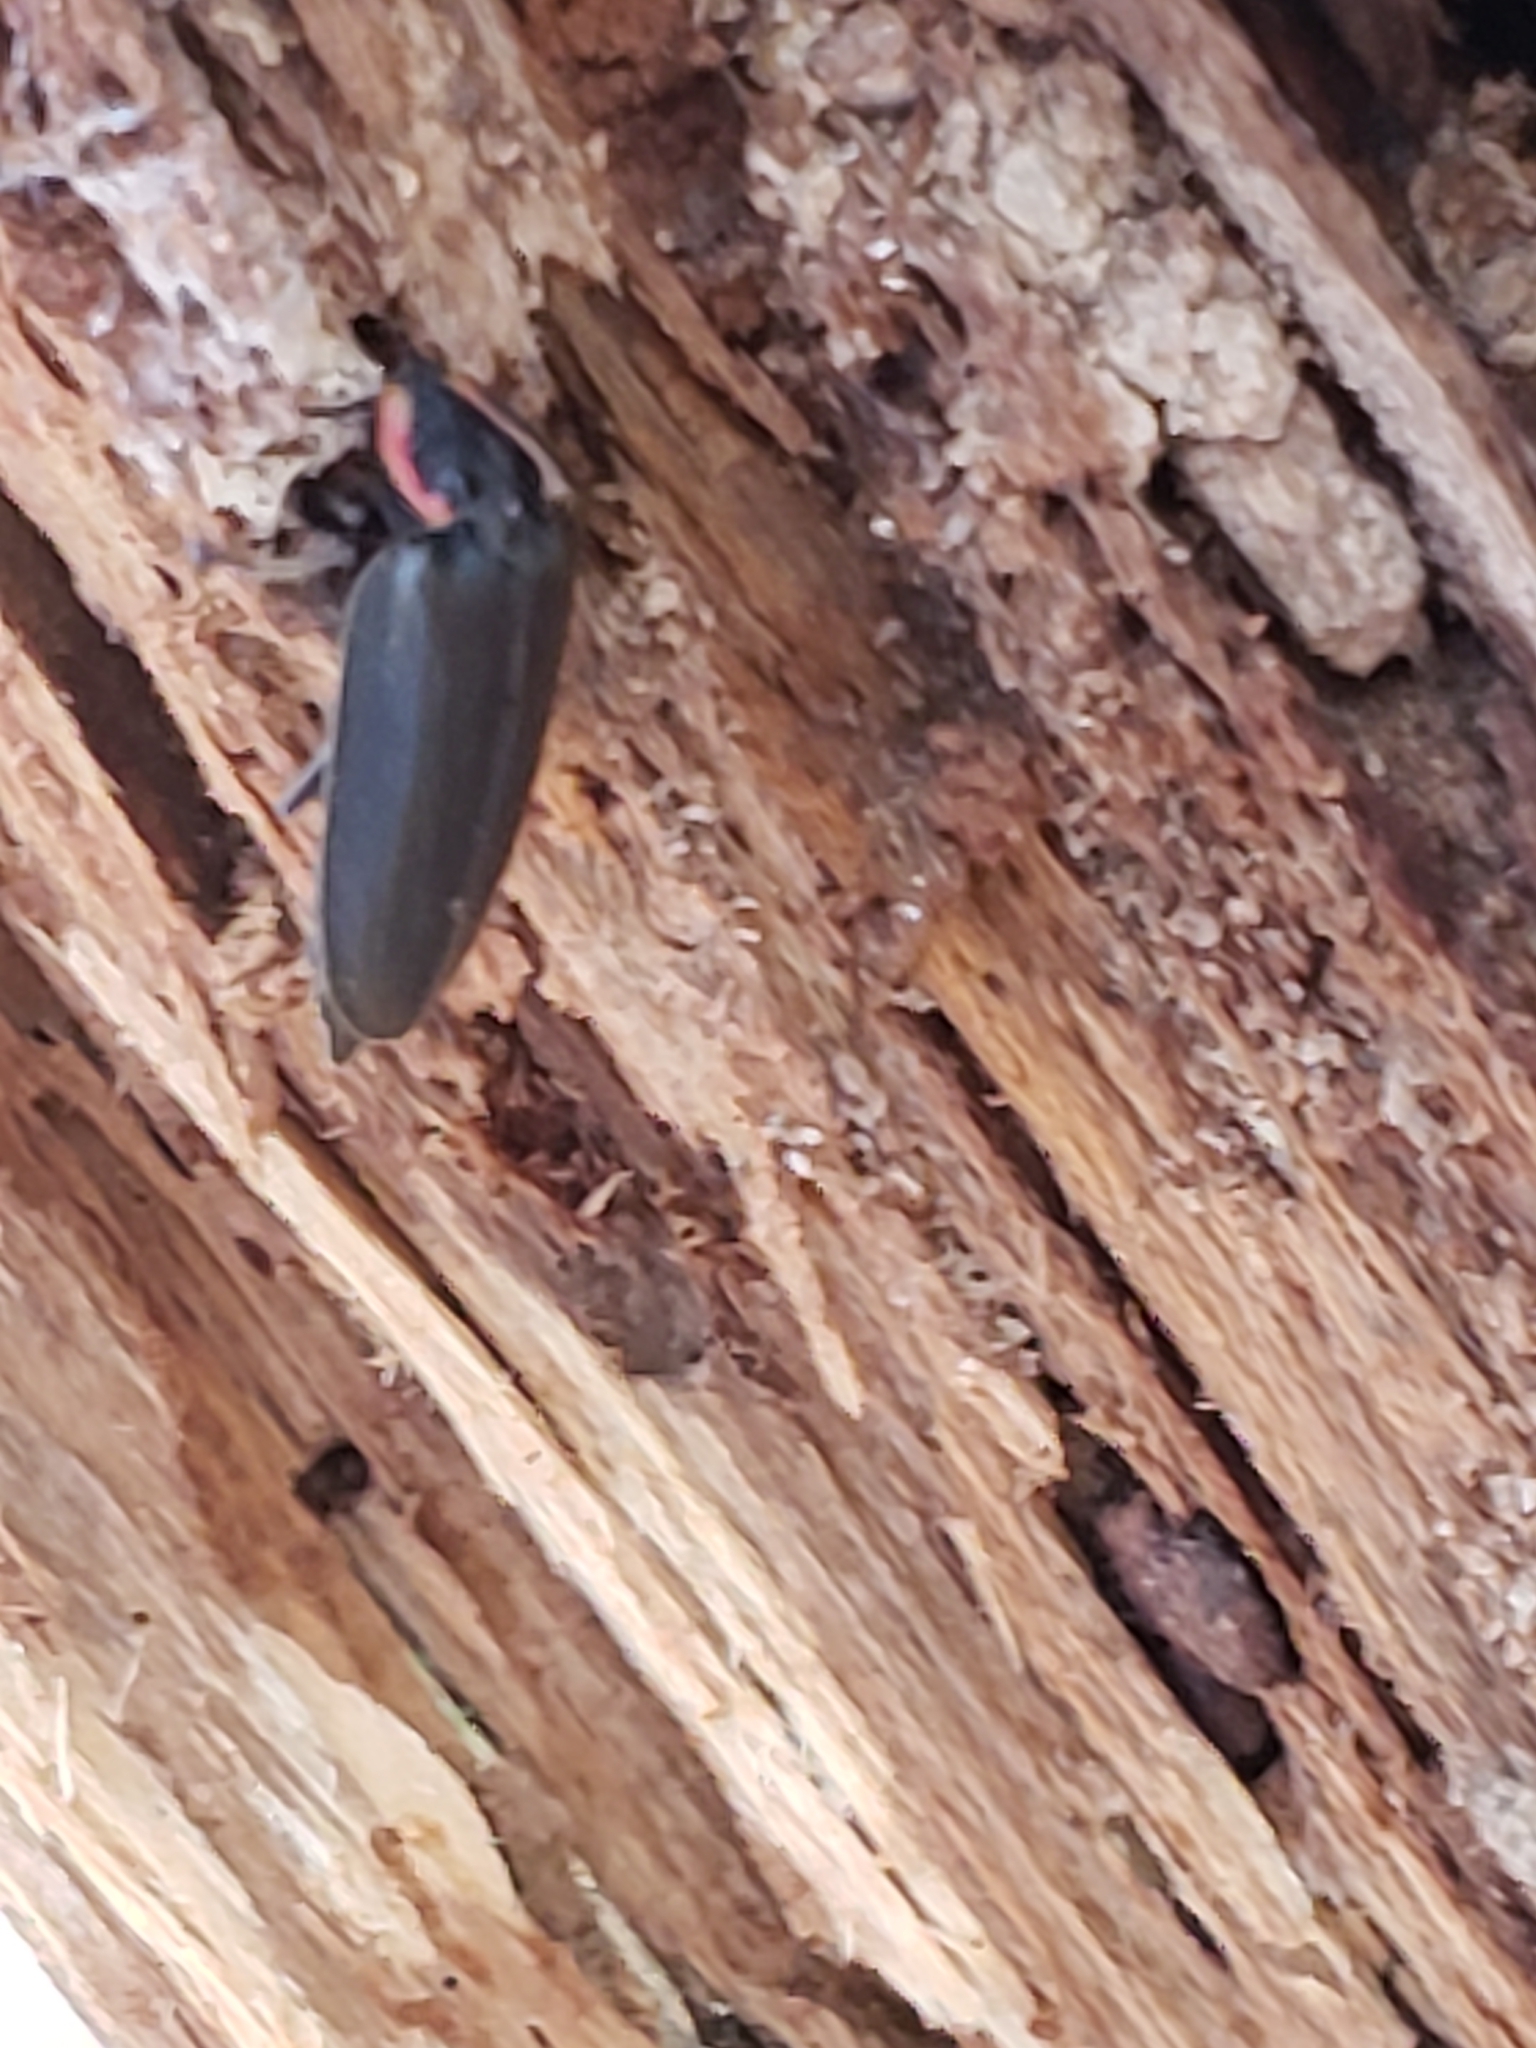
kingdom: Animalia
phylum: Arthropoda
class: Insecta
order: Coleoptera
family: Lampyridae
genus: Photinus
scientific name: Photinus corrusca
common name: Winter firefly
